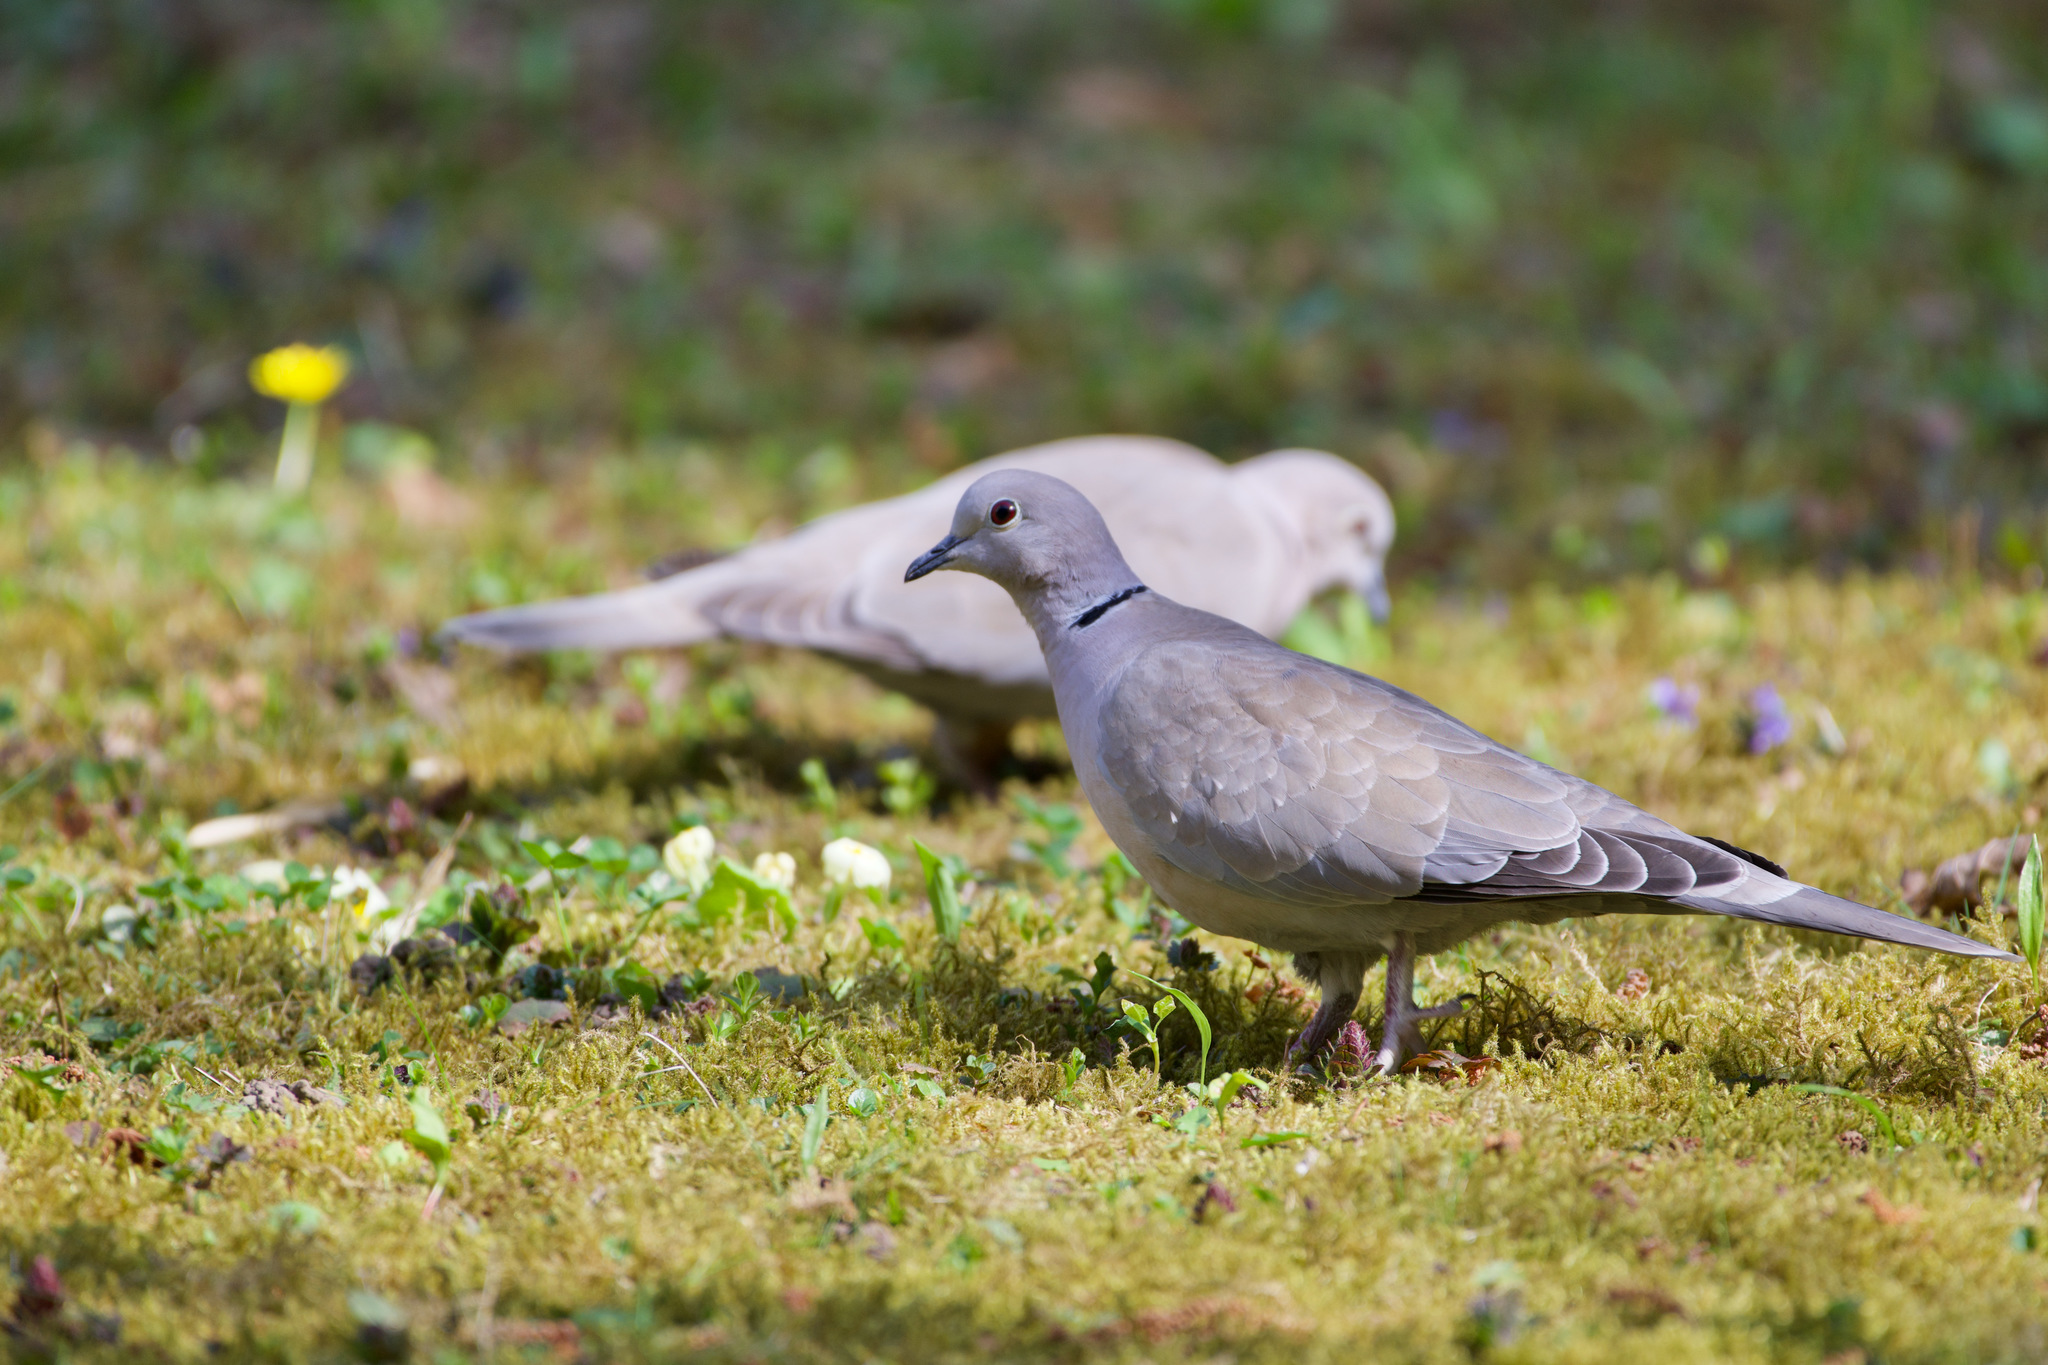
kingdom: Animalia
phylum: Chordata
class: Aves
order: Columbiformes
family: Columbidae
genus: Streptopelia
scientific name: Streptopelia decaocto
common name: Eurasian collared dove
